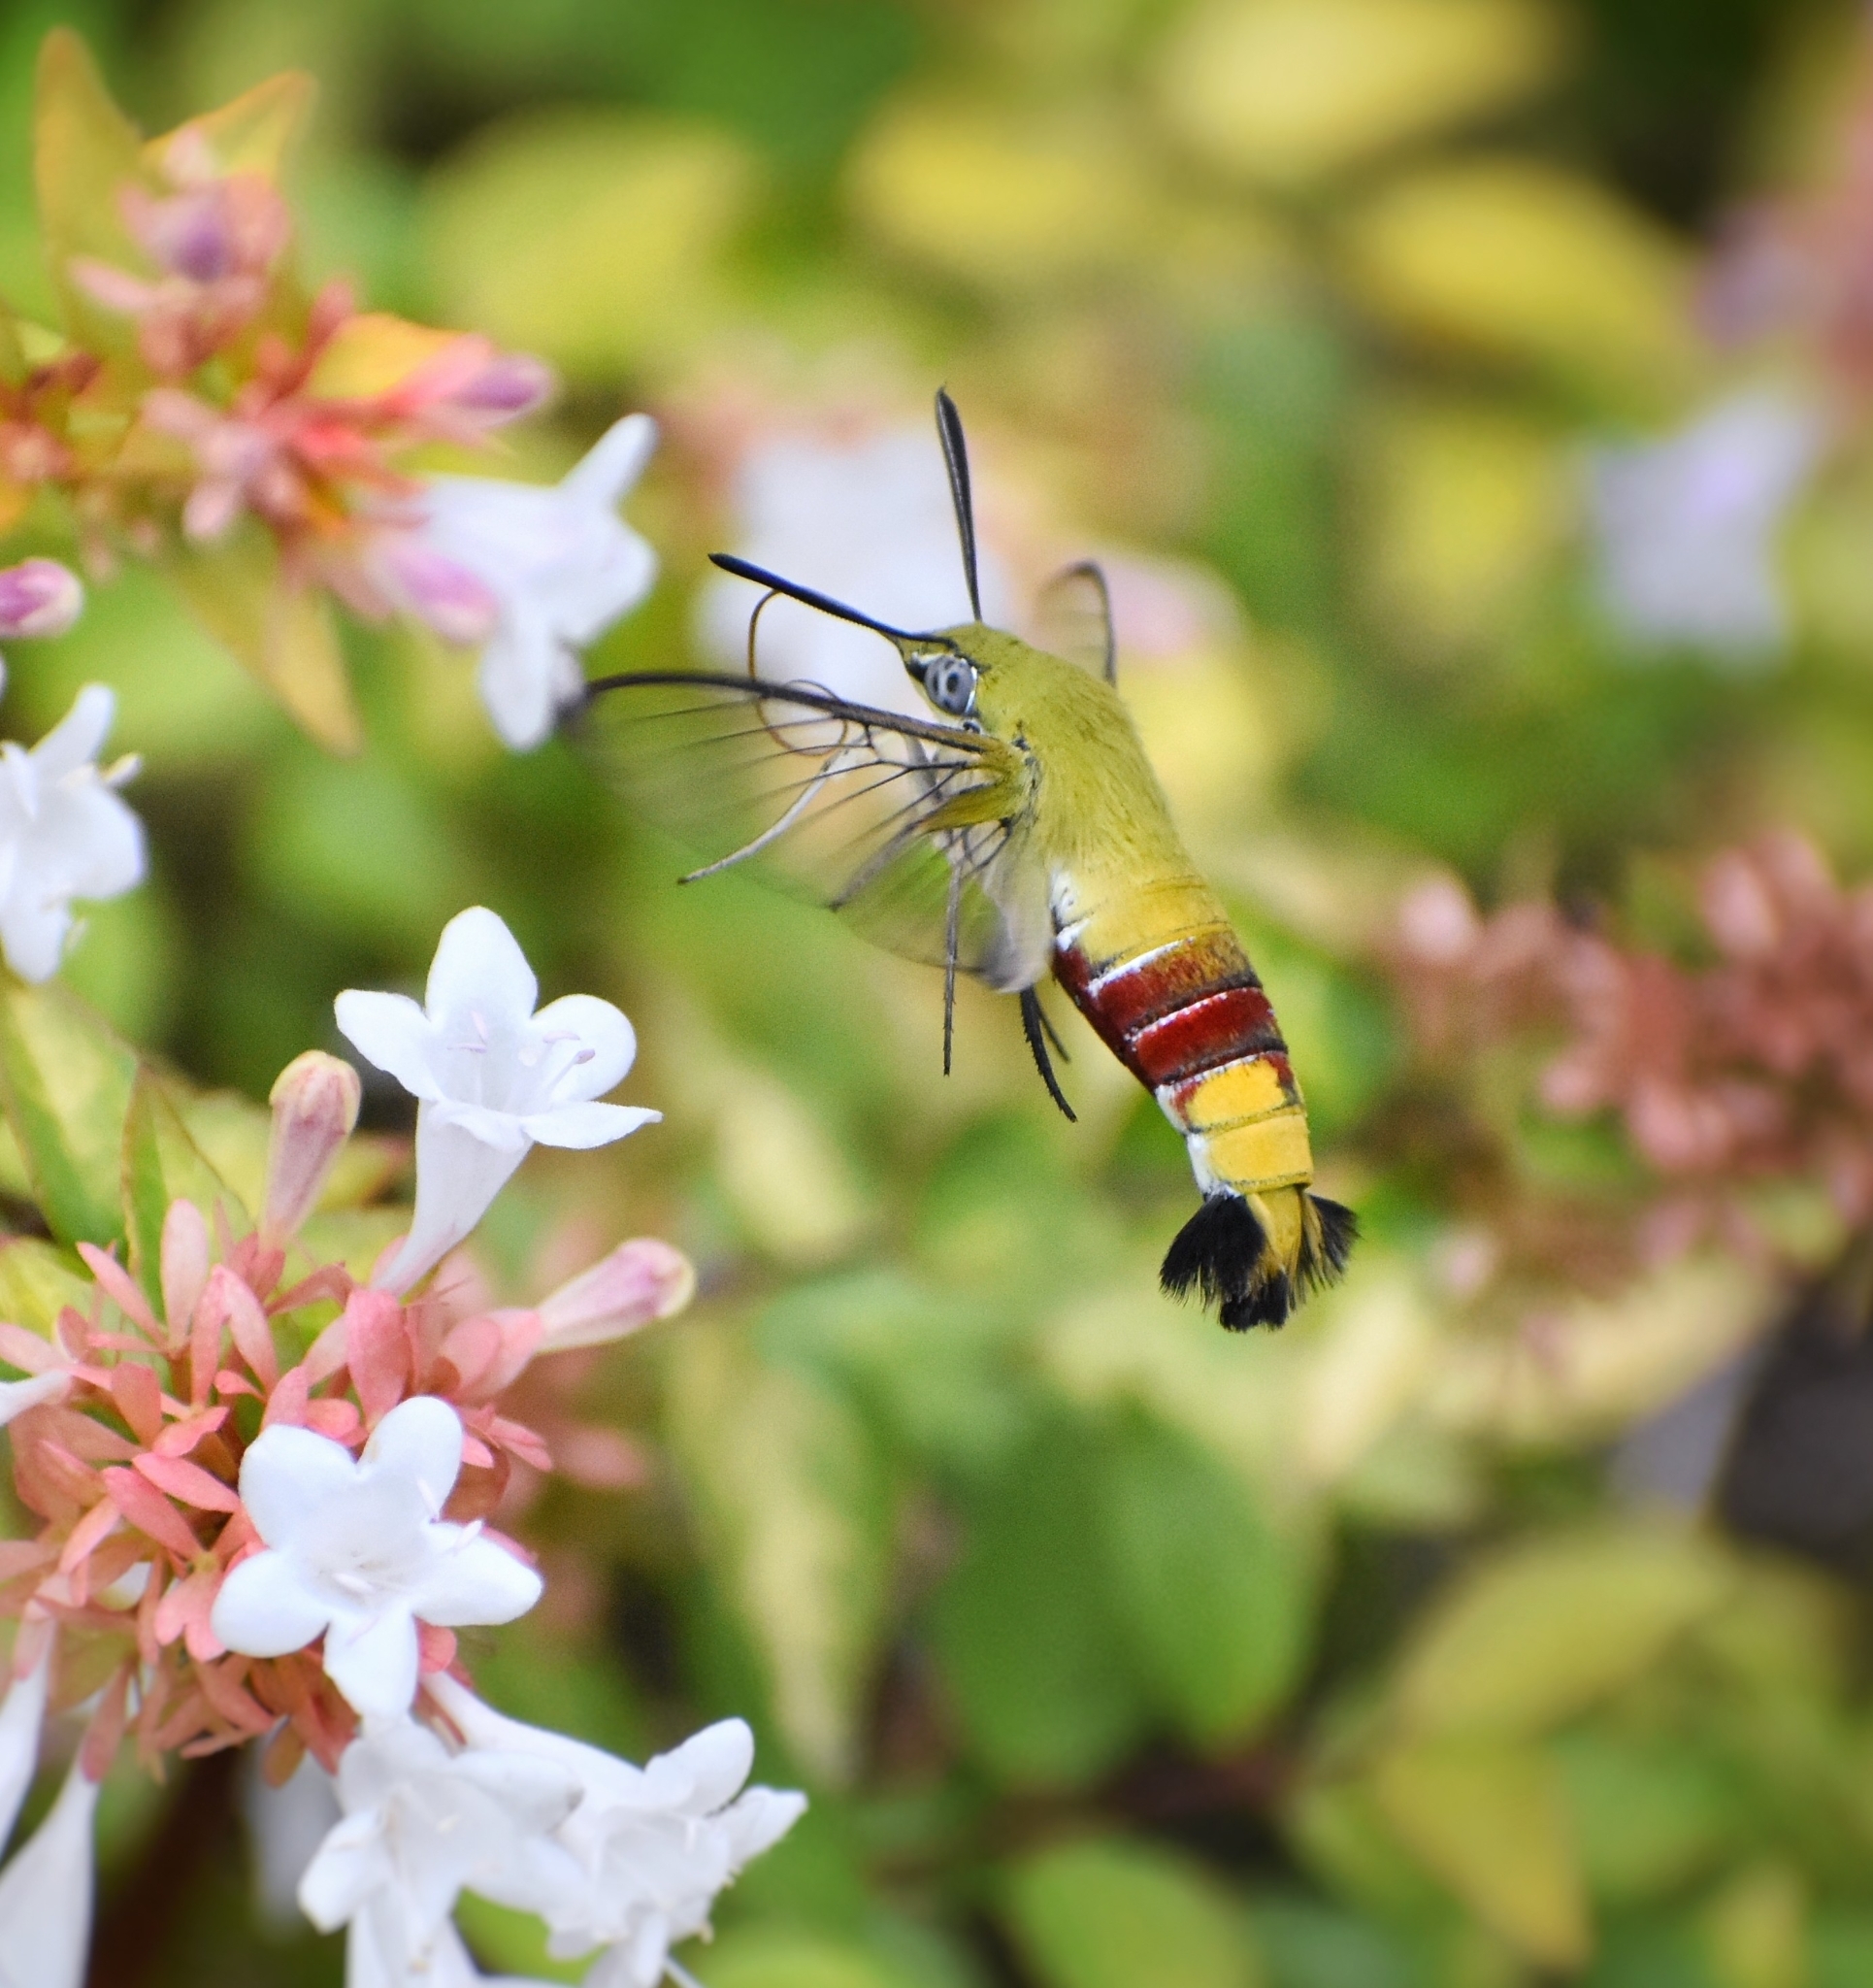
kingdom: Animalia
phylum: Arthropoda
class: Insecta
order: Lepidoptera
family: Sphingidae
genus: Cephonodes
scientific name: Cephonodes hylas
